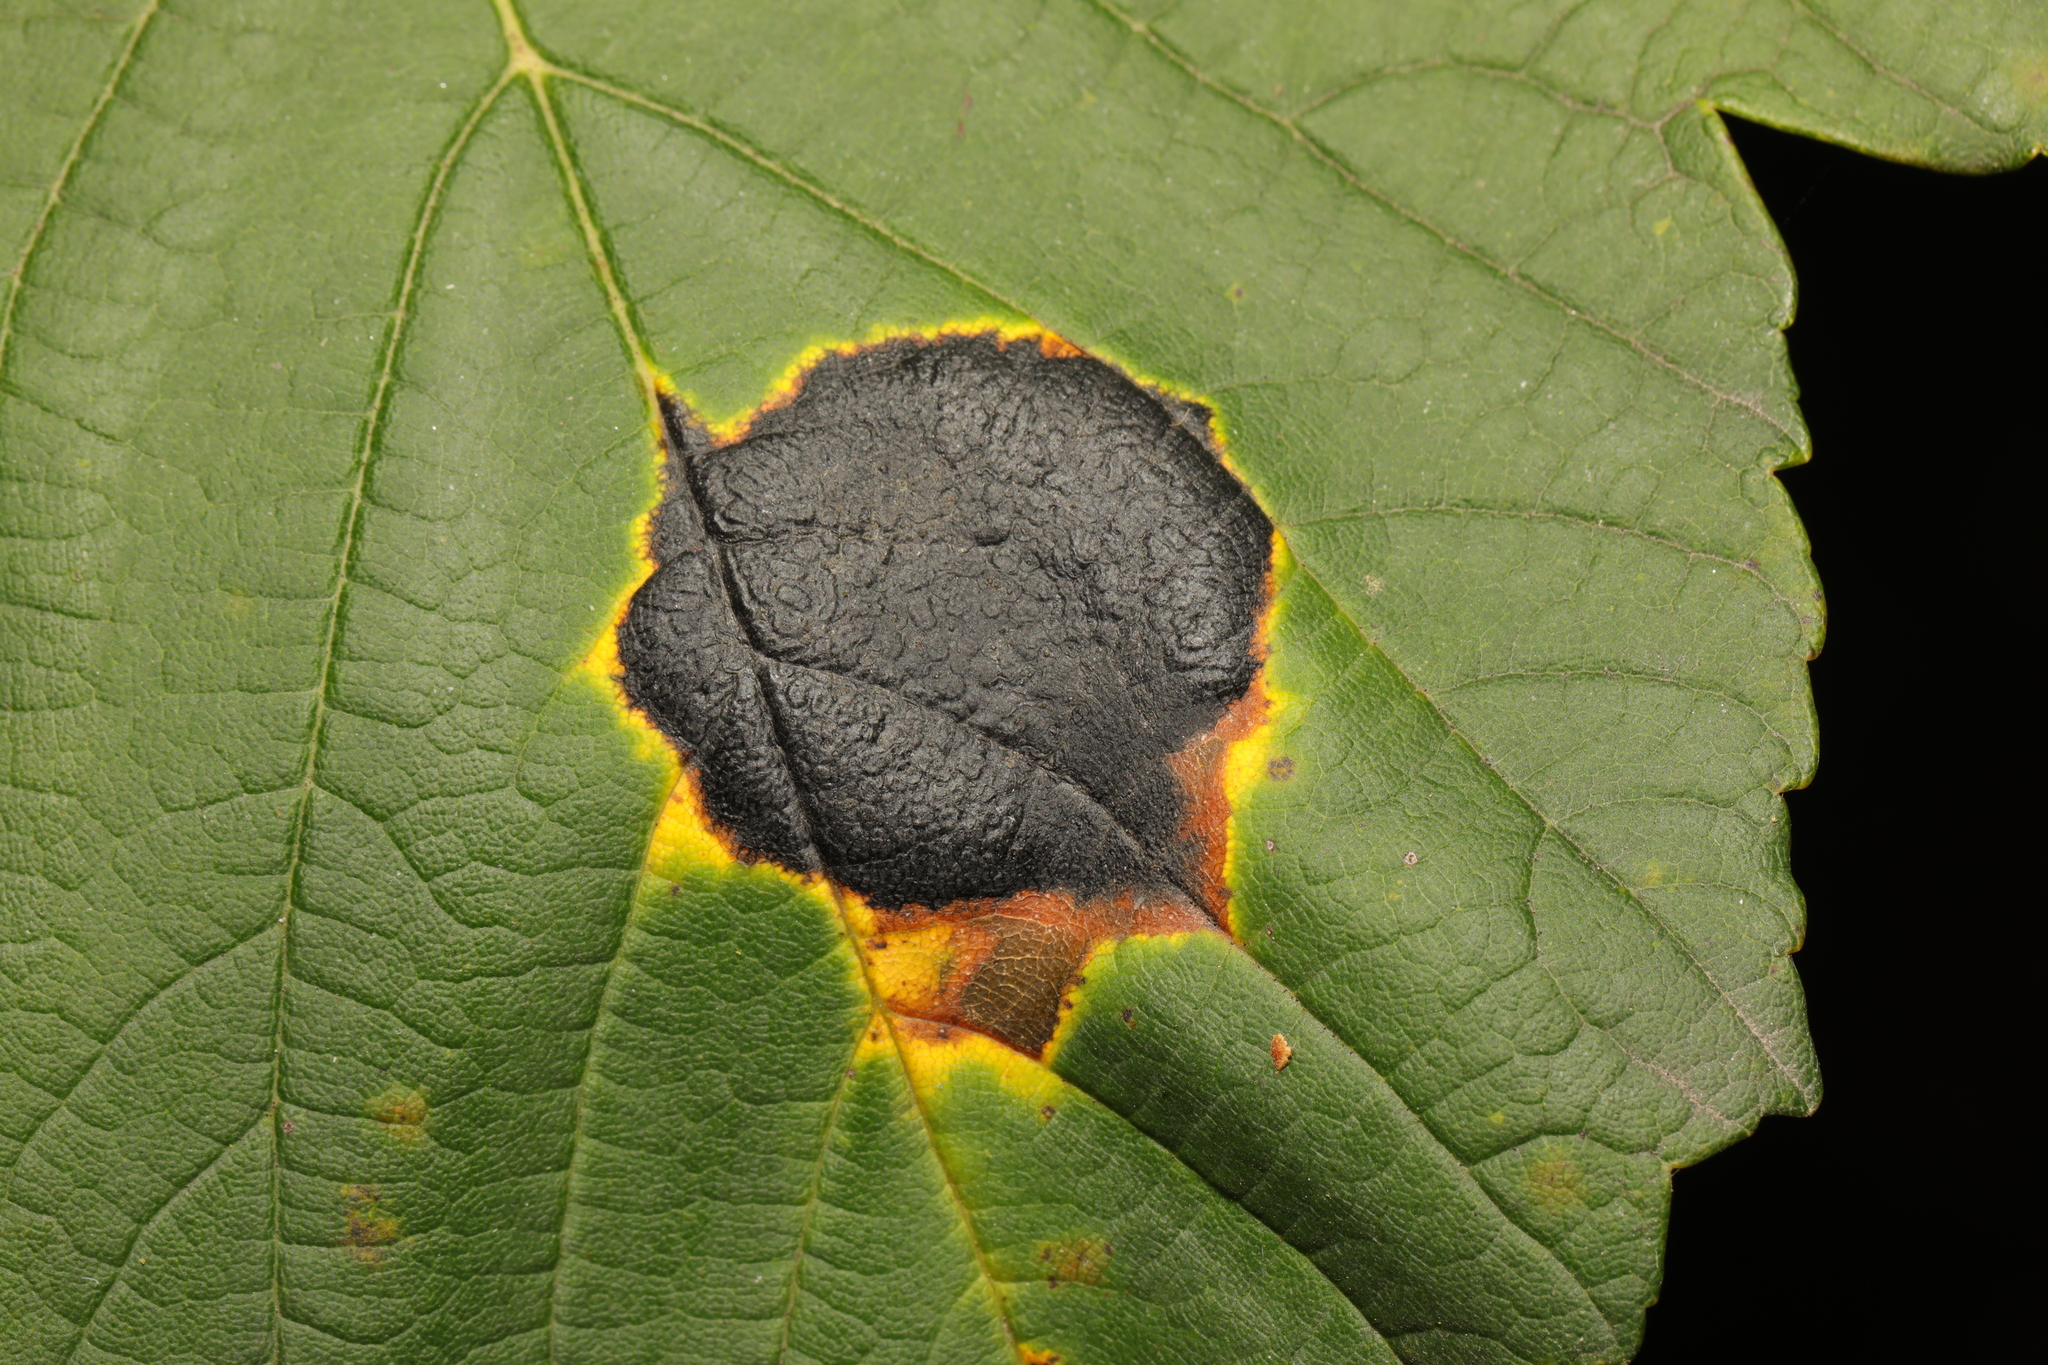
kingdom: Fungi
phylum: Ascomycota
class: Leotiomycetes
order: Rhytismatales
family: Rhytismataceae
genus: Rhytisma
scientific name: Rhytisma acerinum
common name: European tar spot
